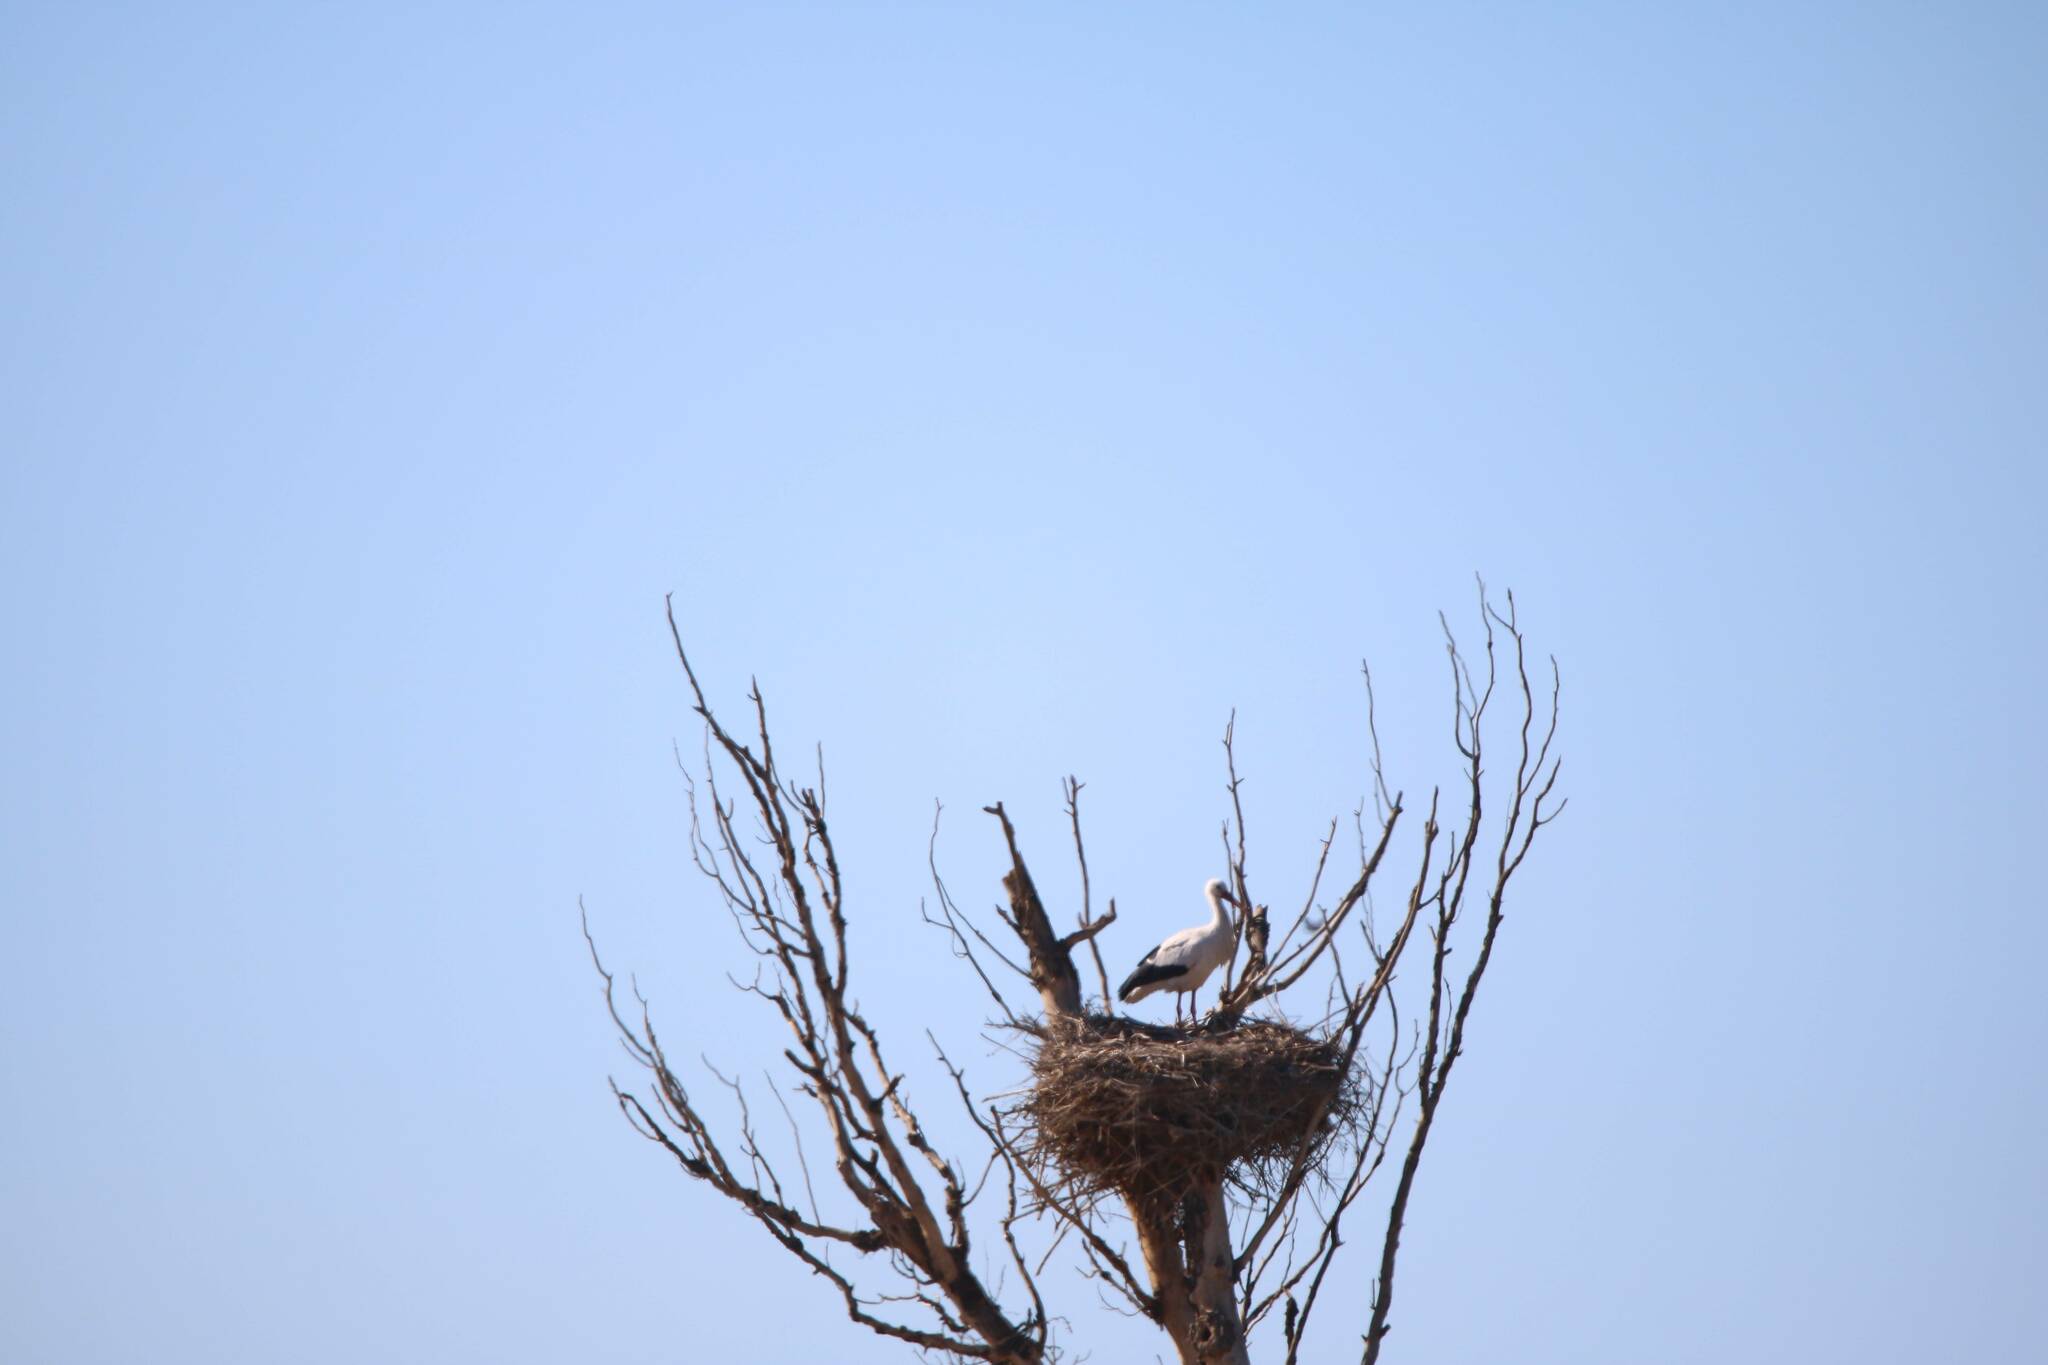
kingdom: Animalia
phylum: Chordata
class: Aves
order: Ciconiiformes
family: Ciconiidae
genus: Ciconia
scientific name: Ciconia ciconia
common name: White stork
